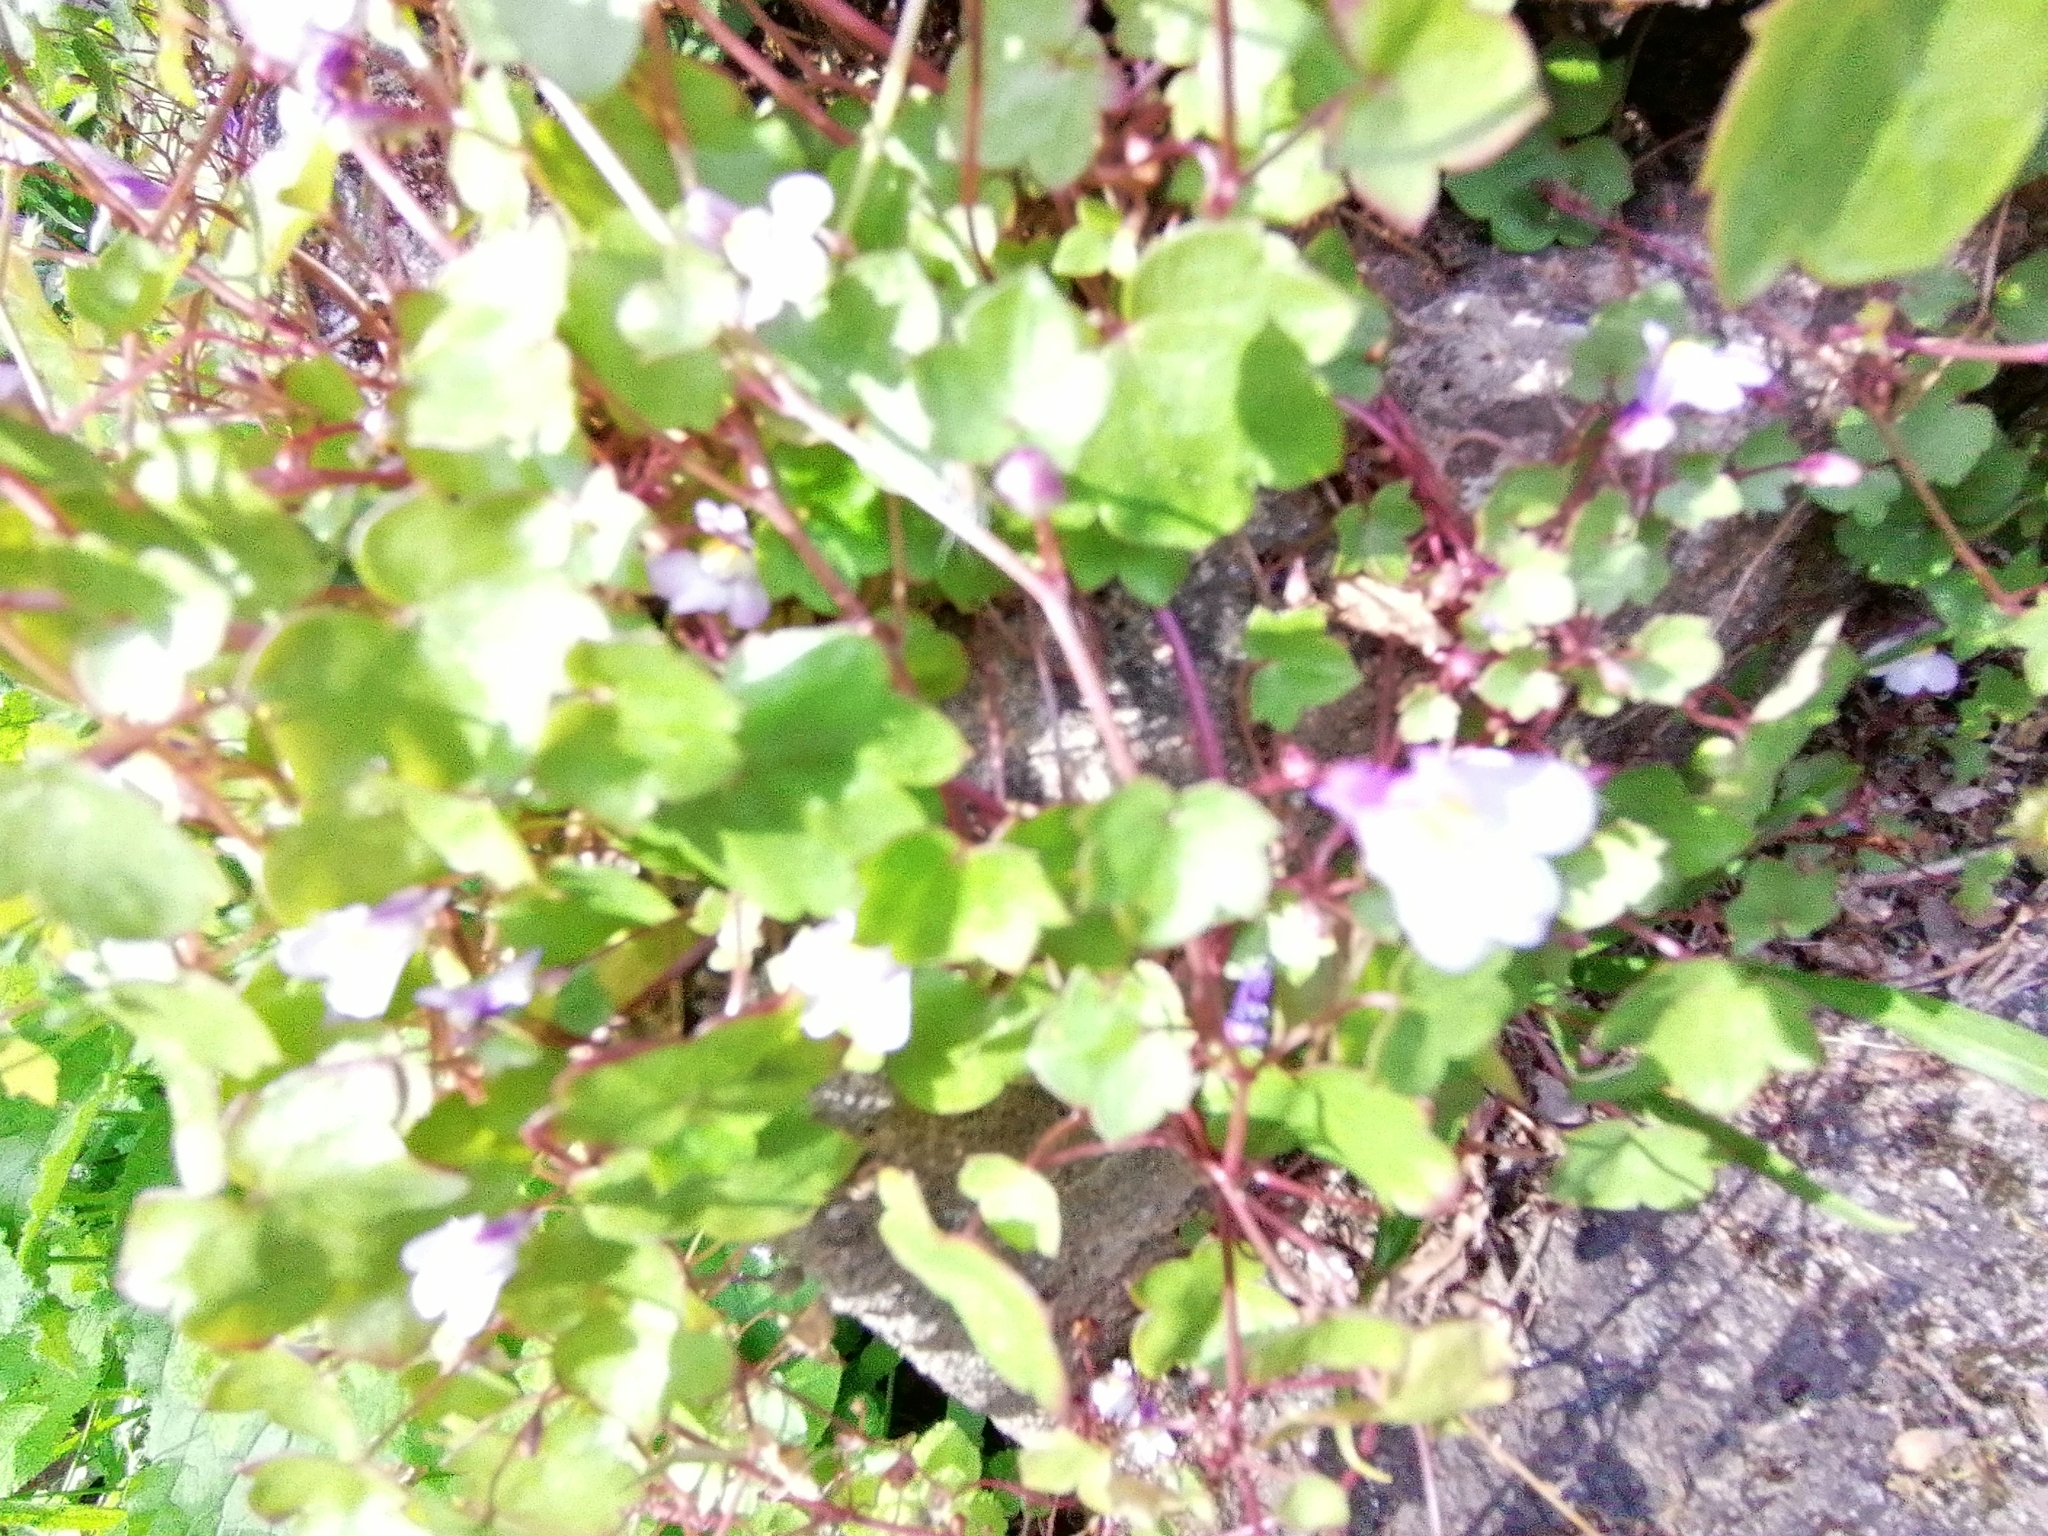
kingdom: Plantae
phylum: Tracheophyta
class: Magnoliopsida
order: Lamiales
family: Plantaginaceae
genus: Cymbalaria
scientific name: Cymbalaria muralis
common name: Ivy-leaved toadflax
